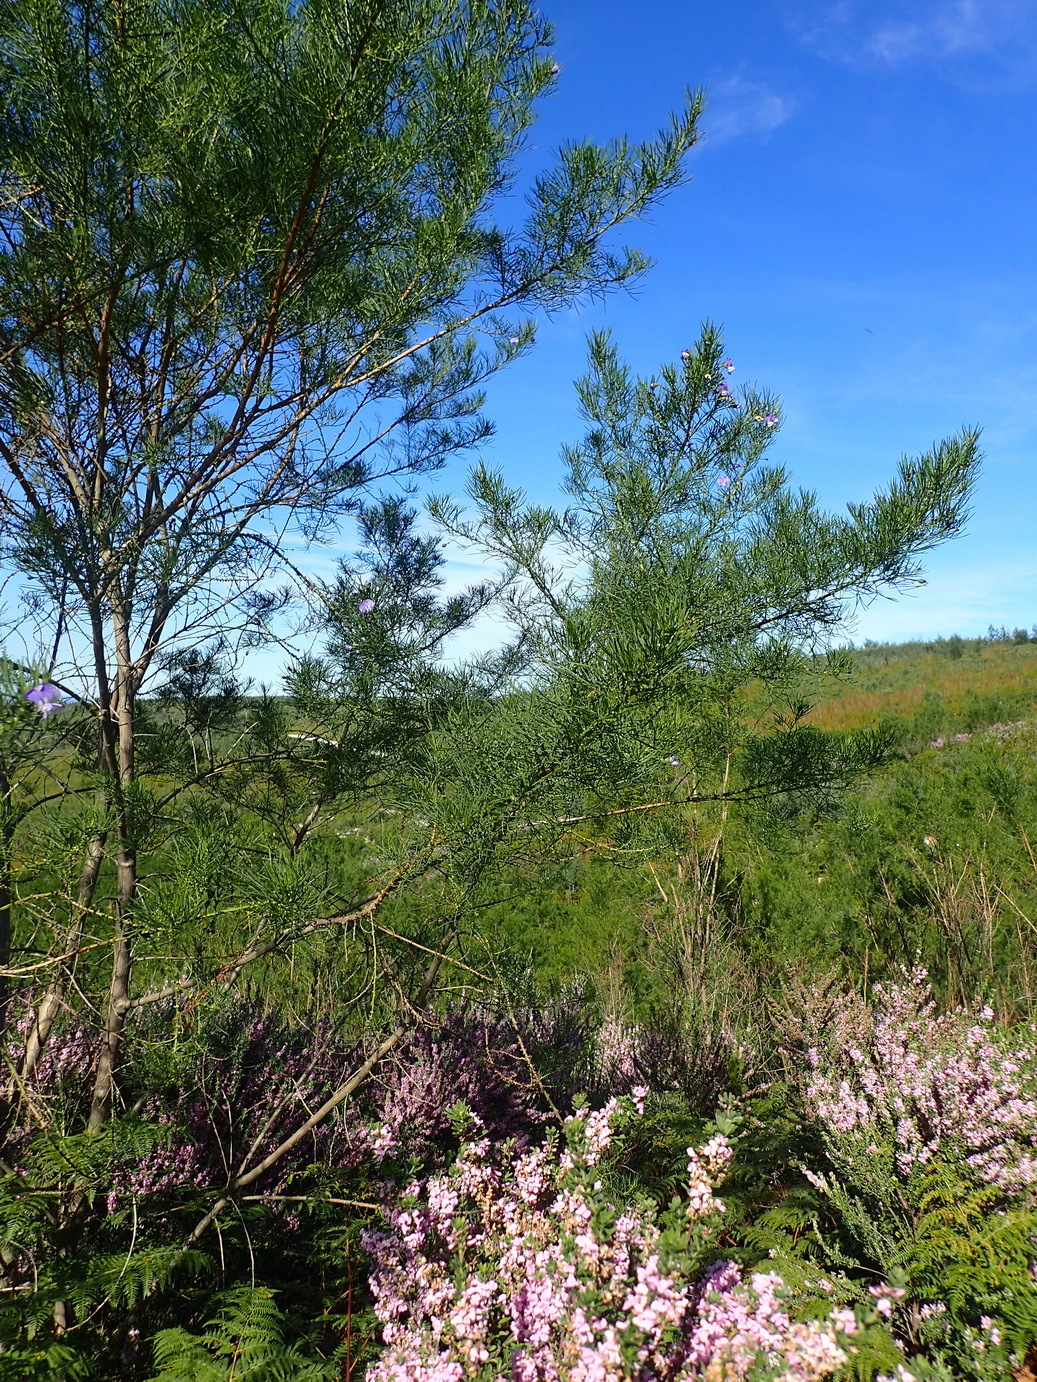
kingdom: Plantae
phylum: Tracheophyta
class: Magnoliopsida
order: Fabales
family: Fabaceae
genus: Psoralea
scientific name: Psoralea montana
